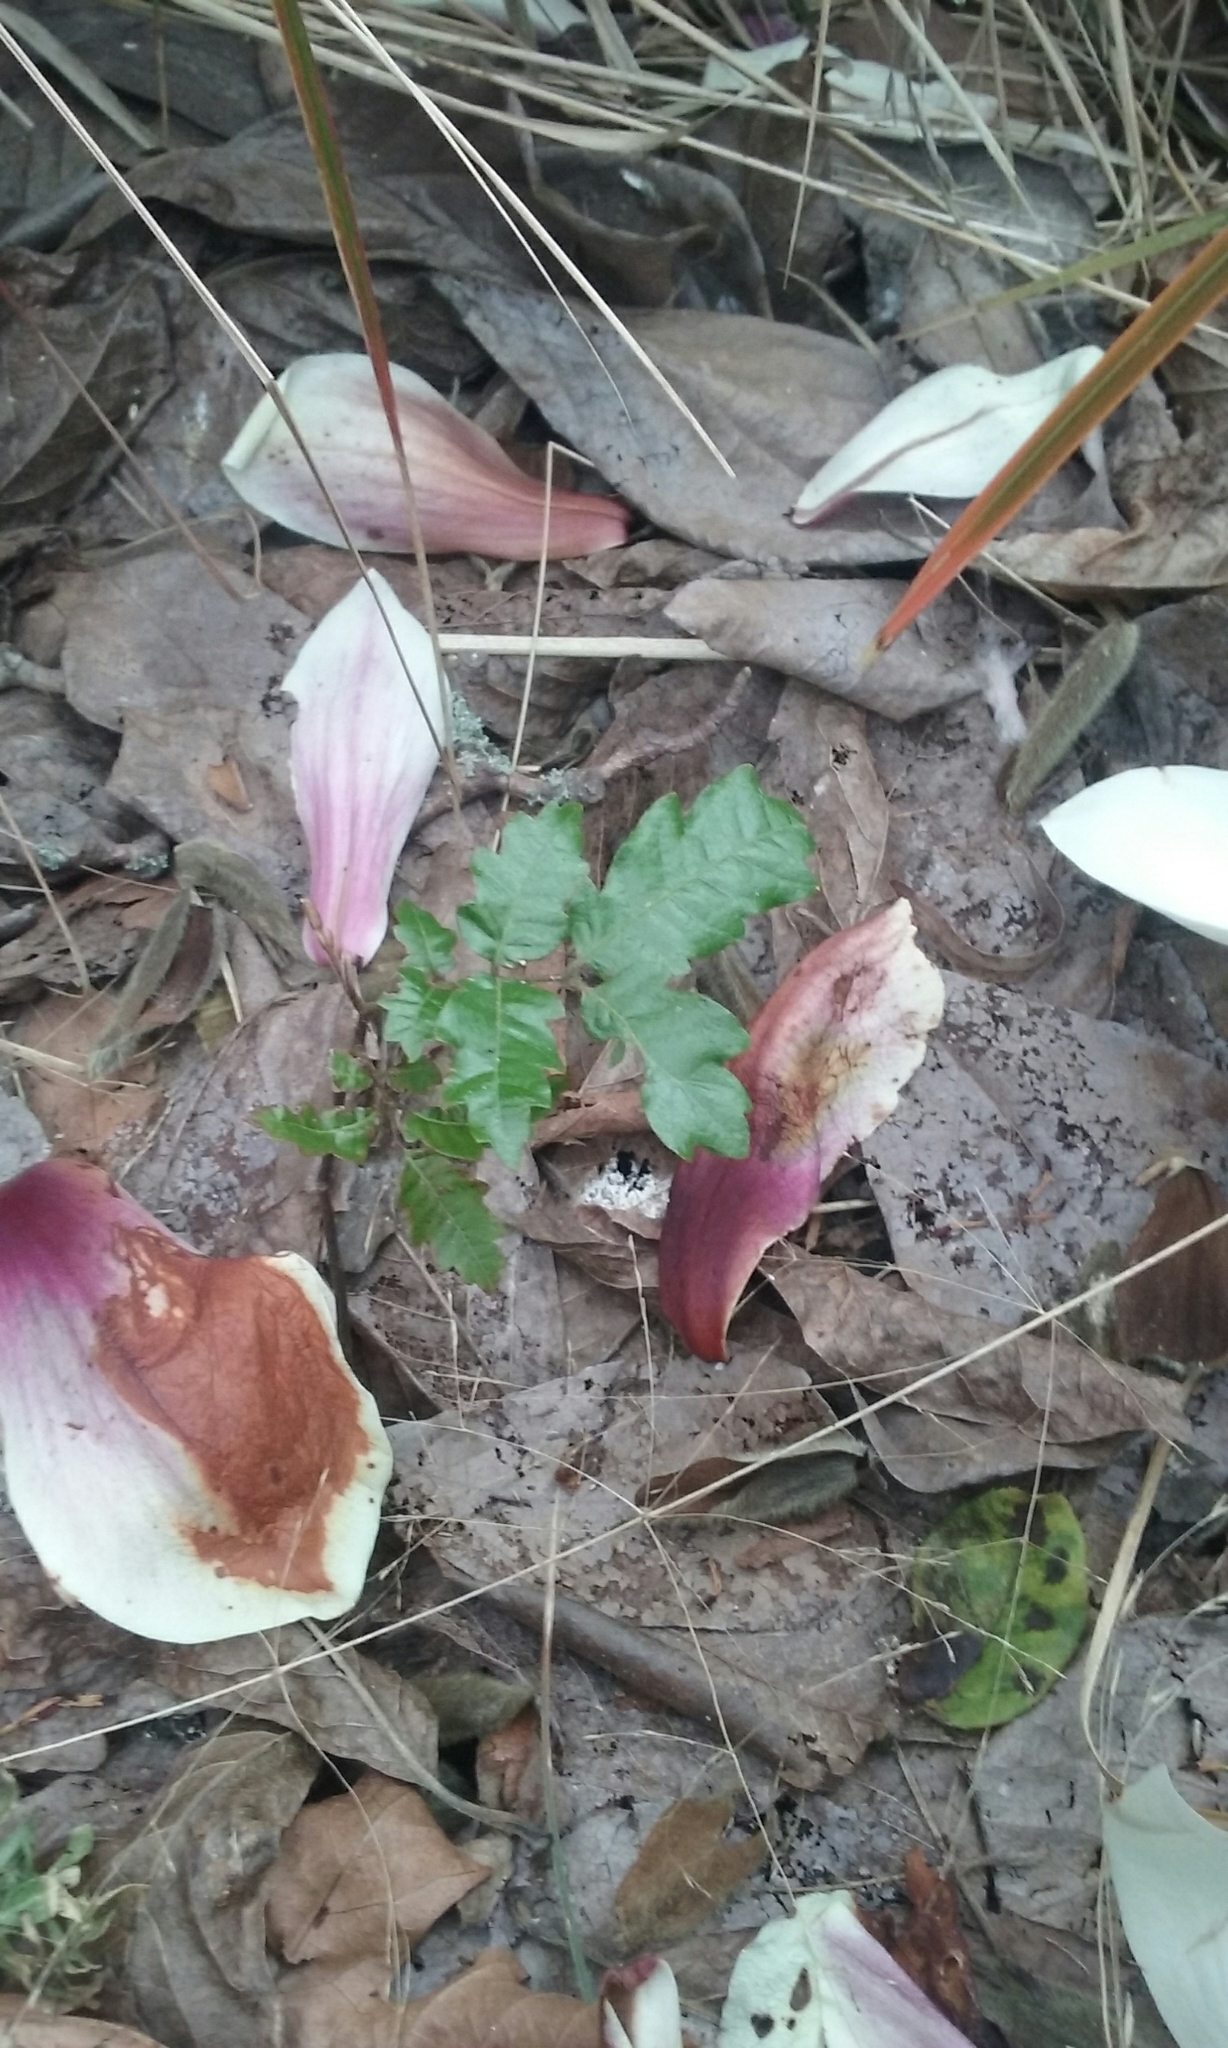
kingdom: Plantae
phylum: Tracheophyta
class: Magnoliopsida
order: Sapindales
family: Sapindaceae
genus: Alectryon
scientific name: Alectryon excelsus
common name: Three kings titoki
